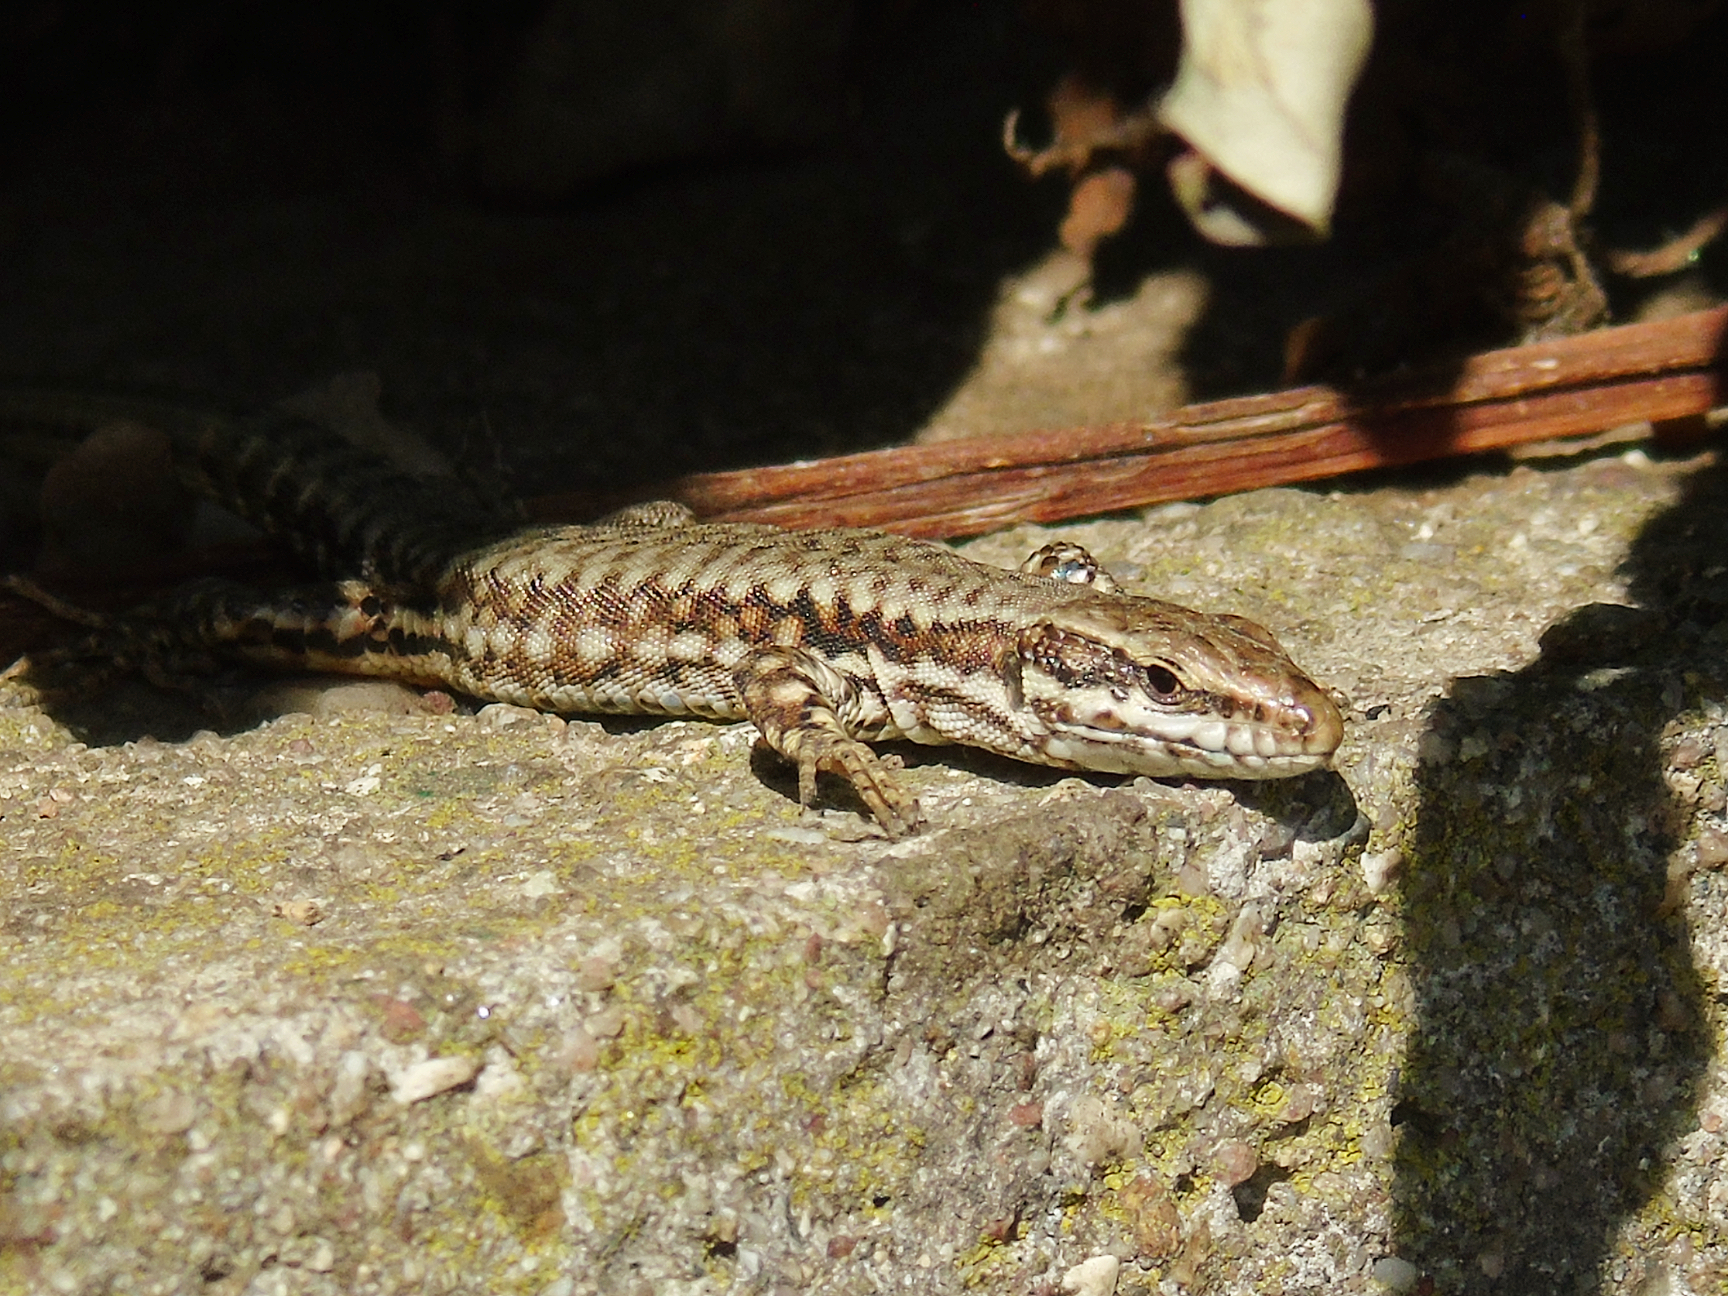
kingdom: Animalia
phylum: Chordata
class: Squamata
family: Lacertidae
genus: Podarcis
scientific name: Podarcis muralis
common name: Common wall lizard
